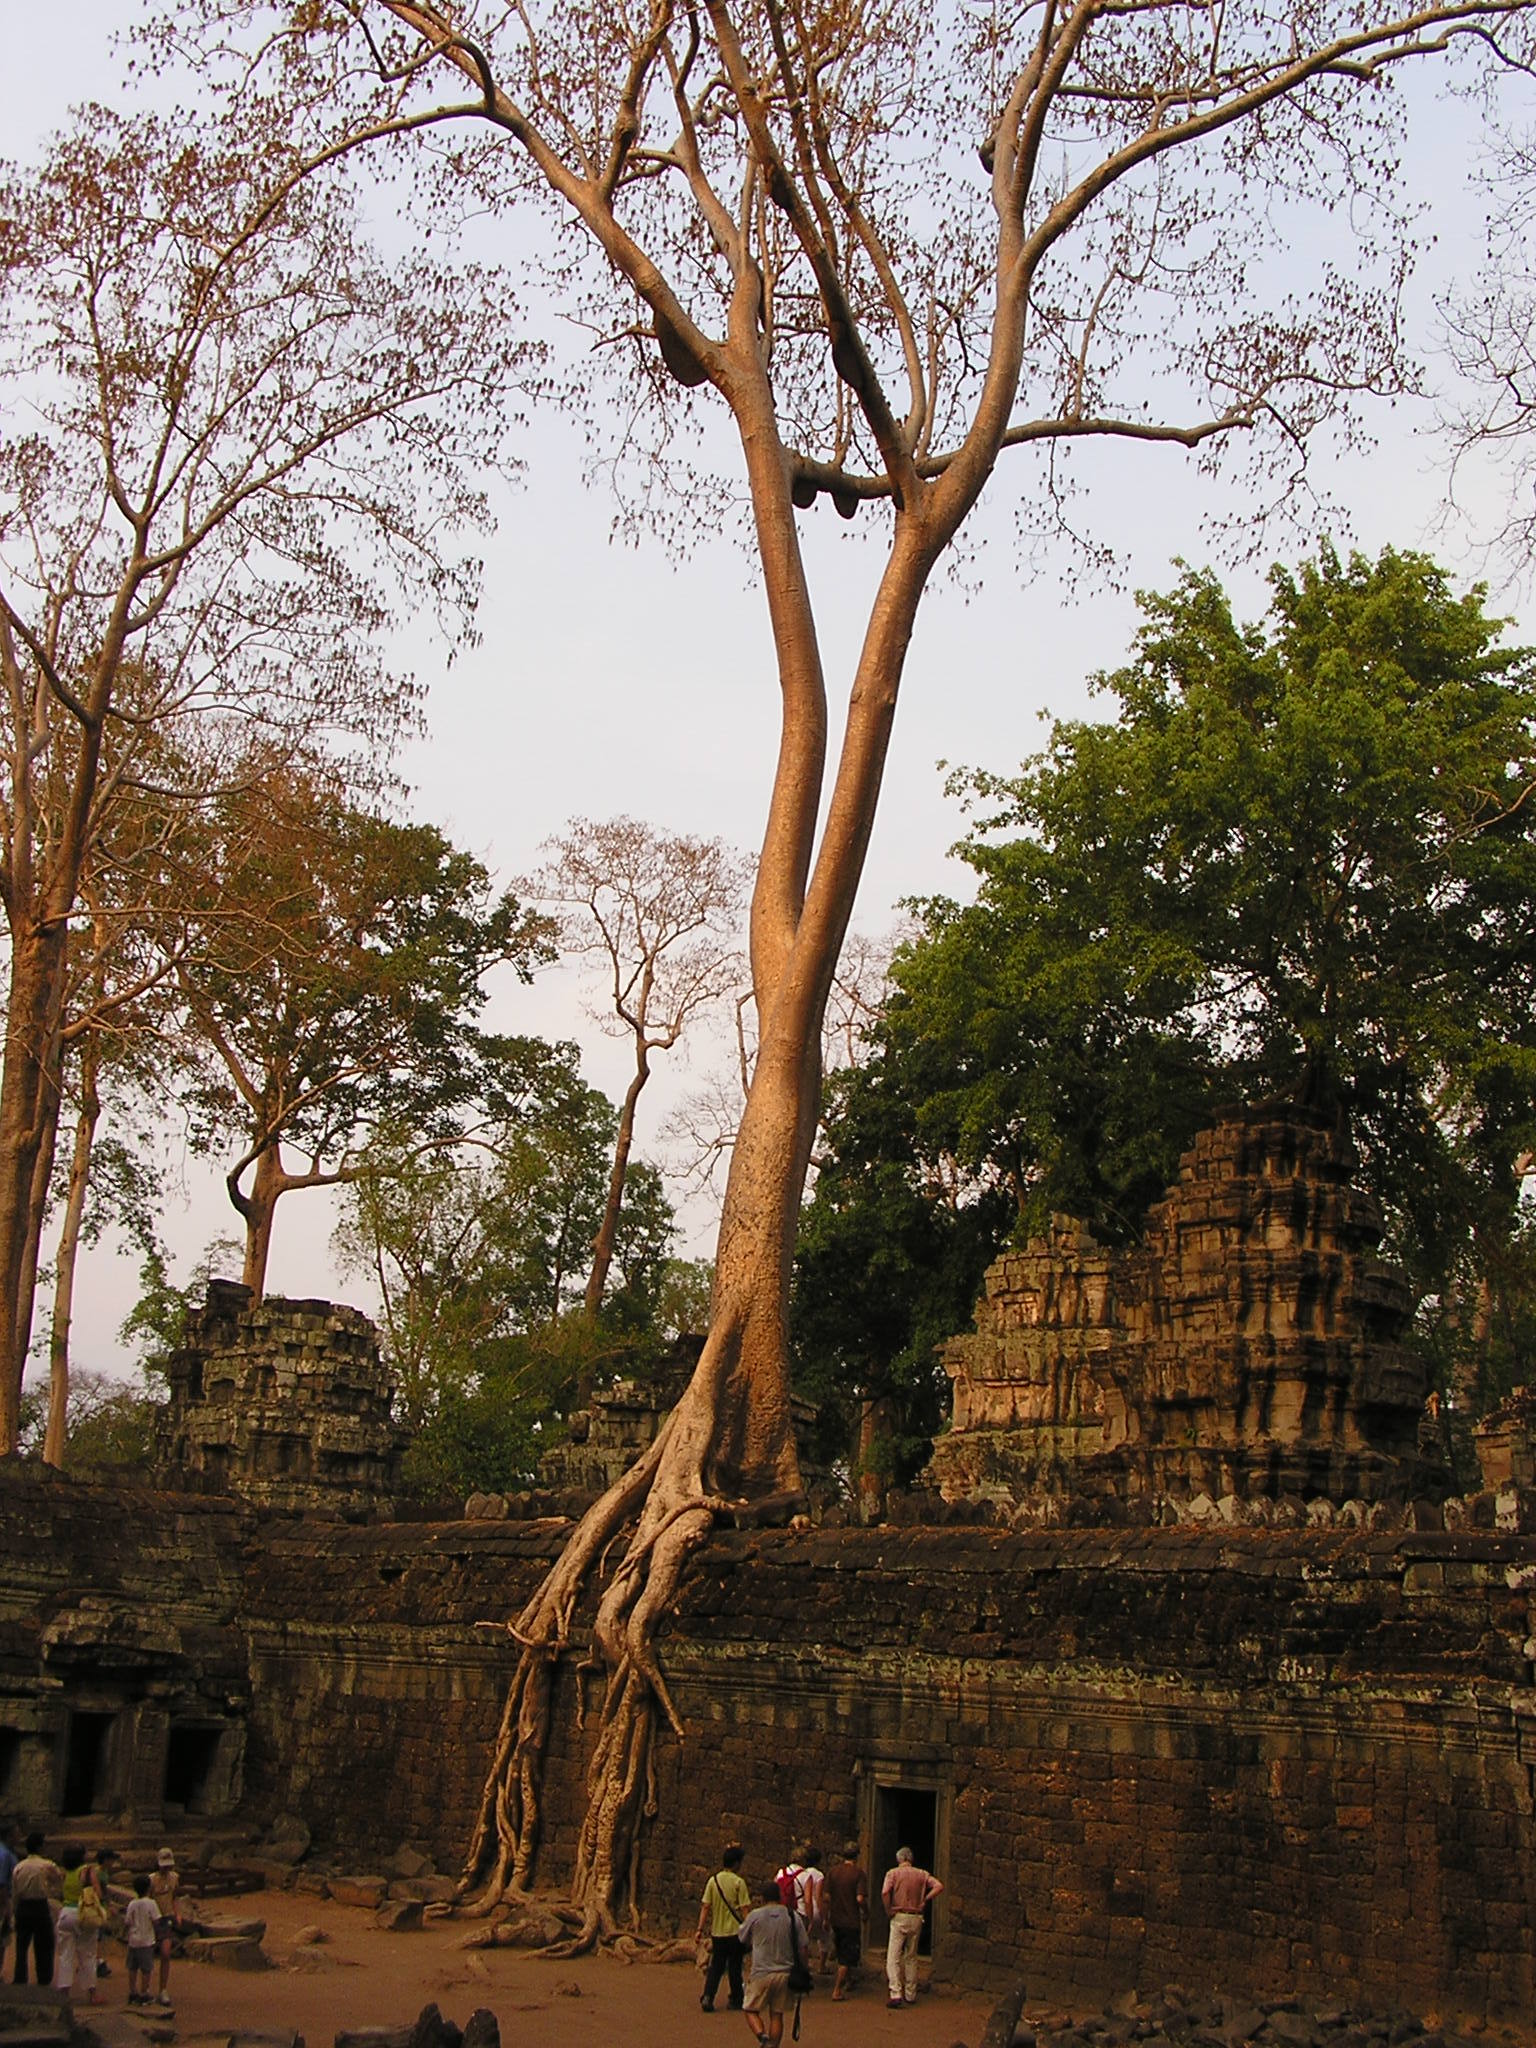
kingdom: Plantae
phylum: Tracheophyta
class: Magnoliopsida
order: Cucurbitales
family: Tetramelaceae
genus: Tetrameles
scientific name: Tetrameles nudiflora
